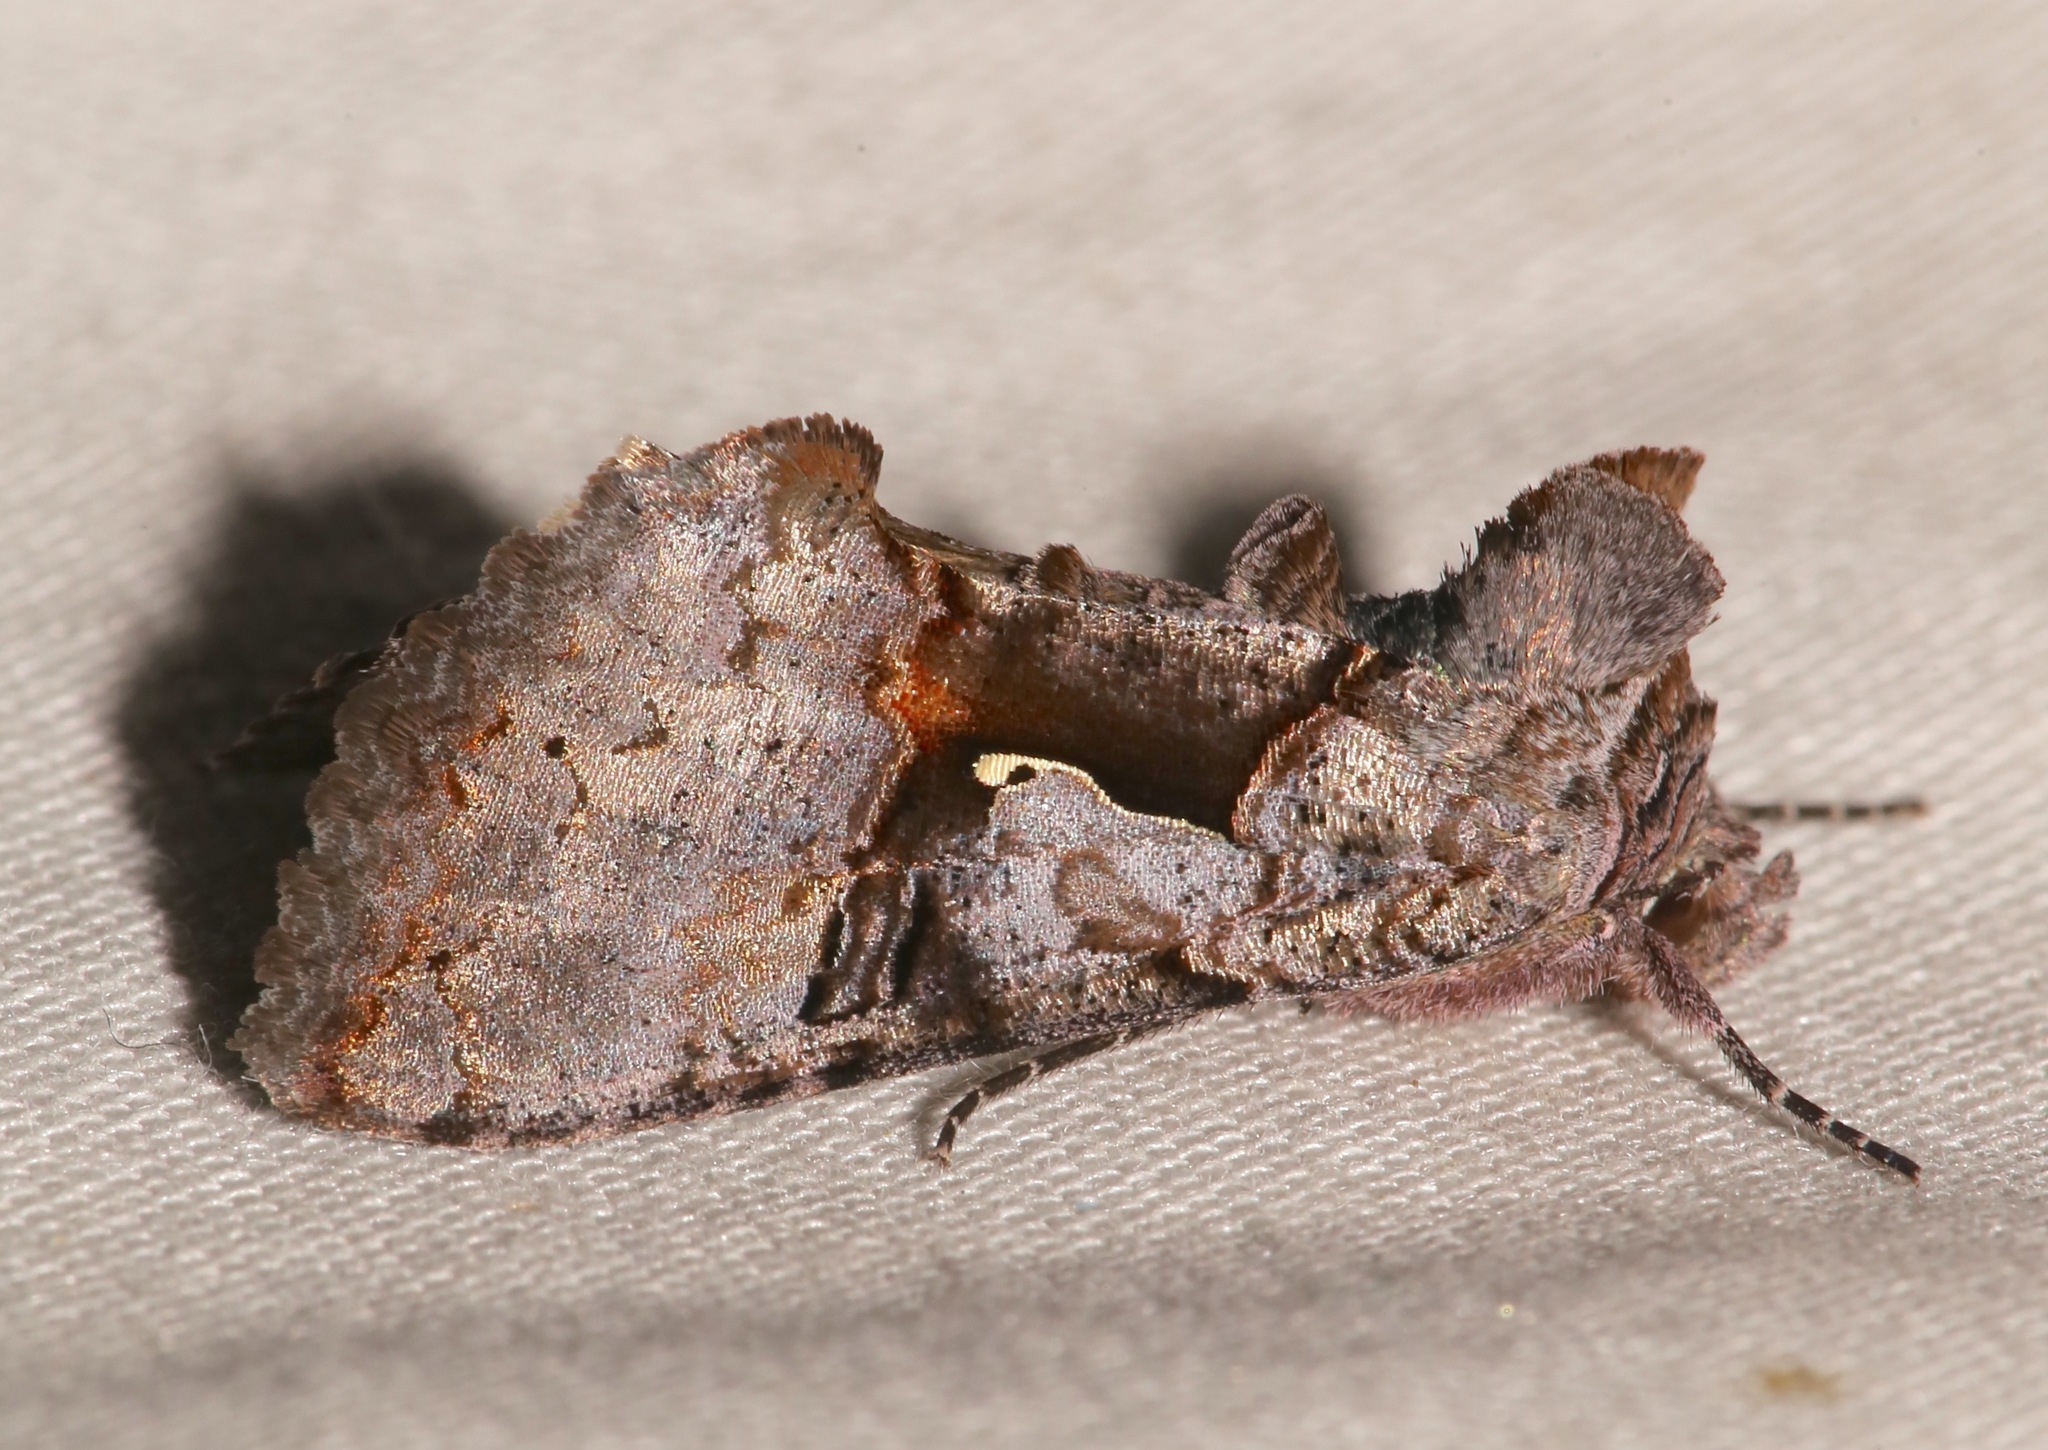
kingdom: Animalia
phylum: Arthropoda
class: Insecta
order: Lepidoptera
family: Noctuidae
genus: Syngrapha
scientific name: Syngrapha epigaea
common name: Epigaea looper moth
